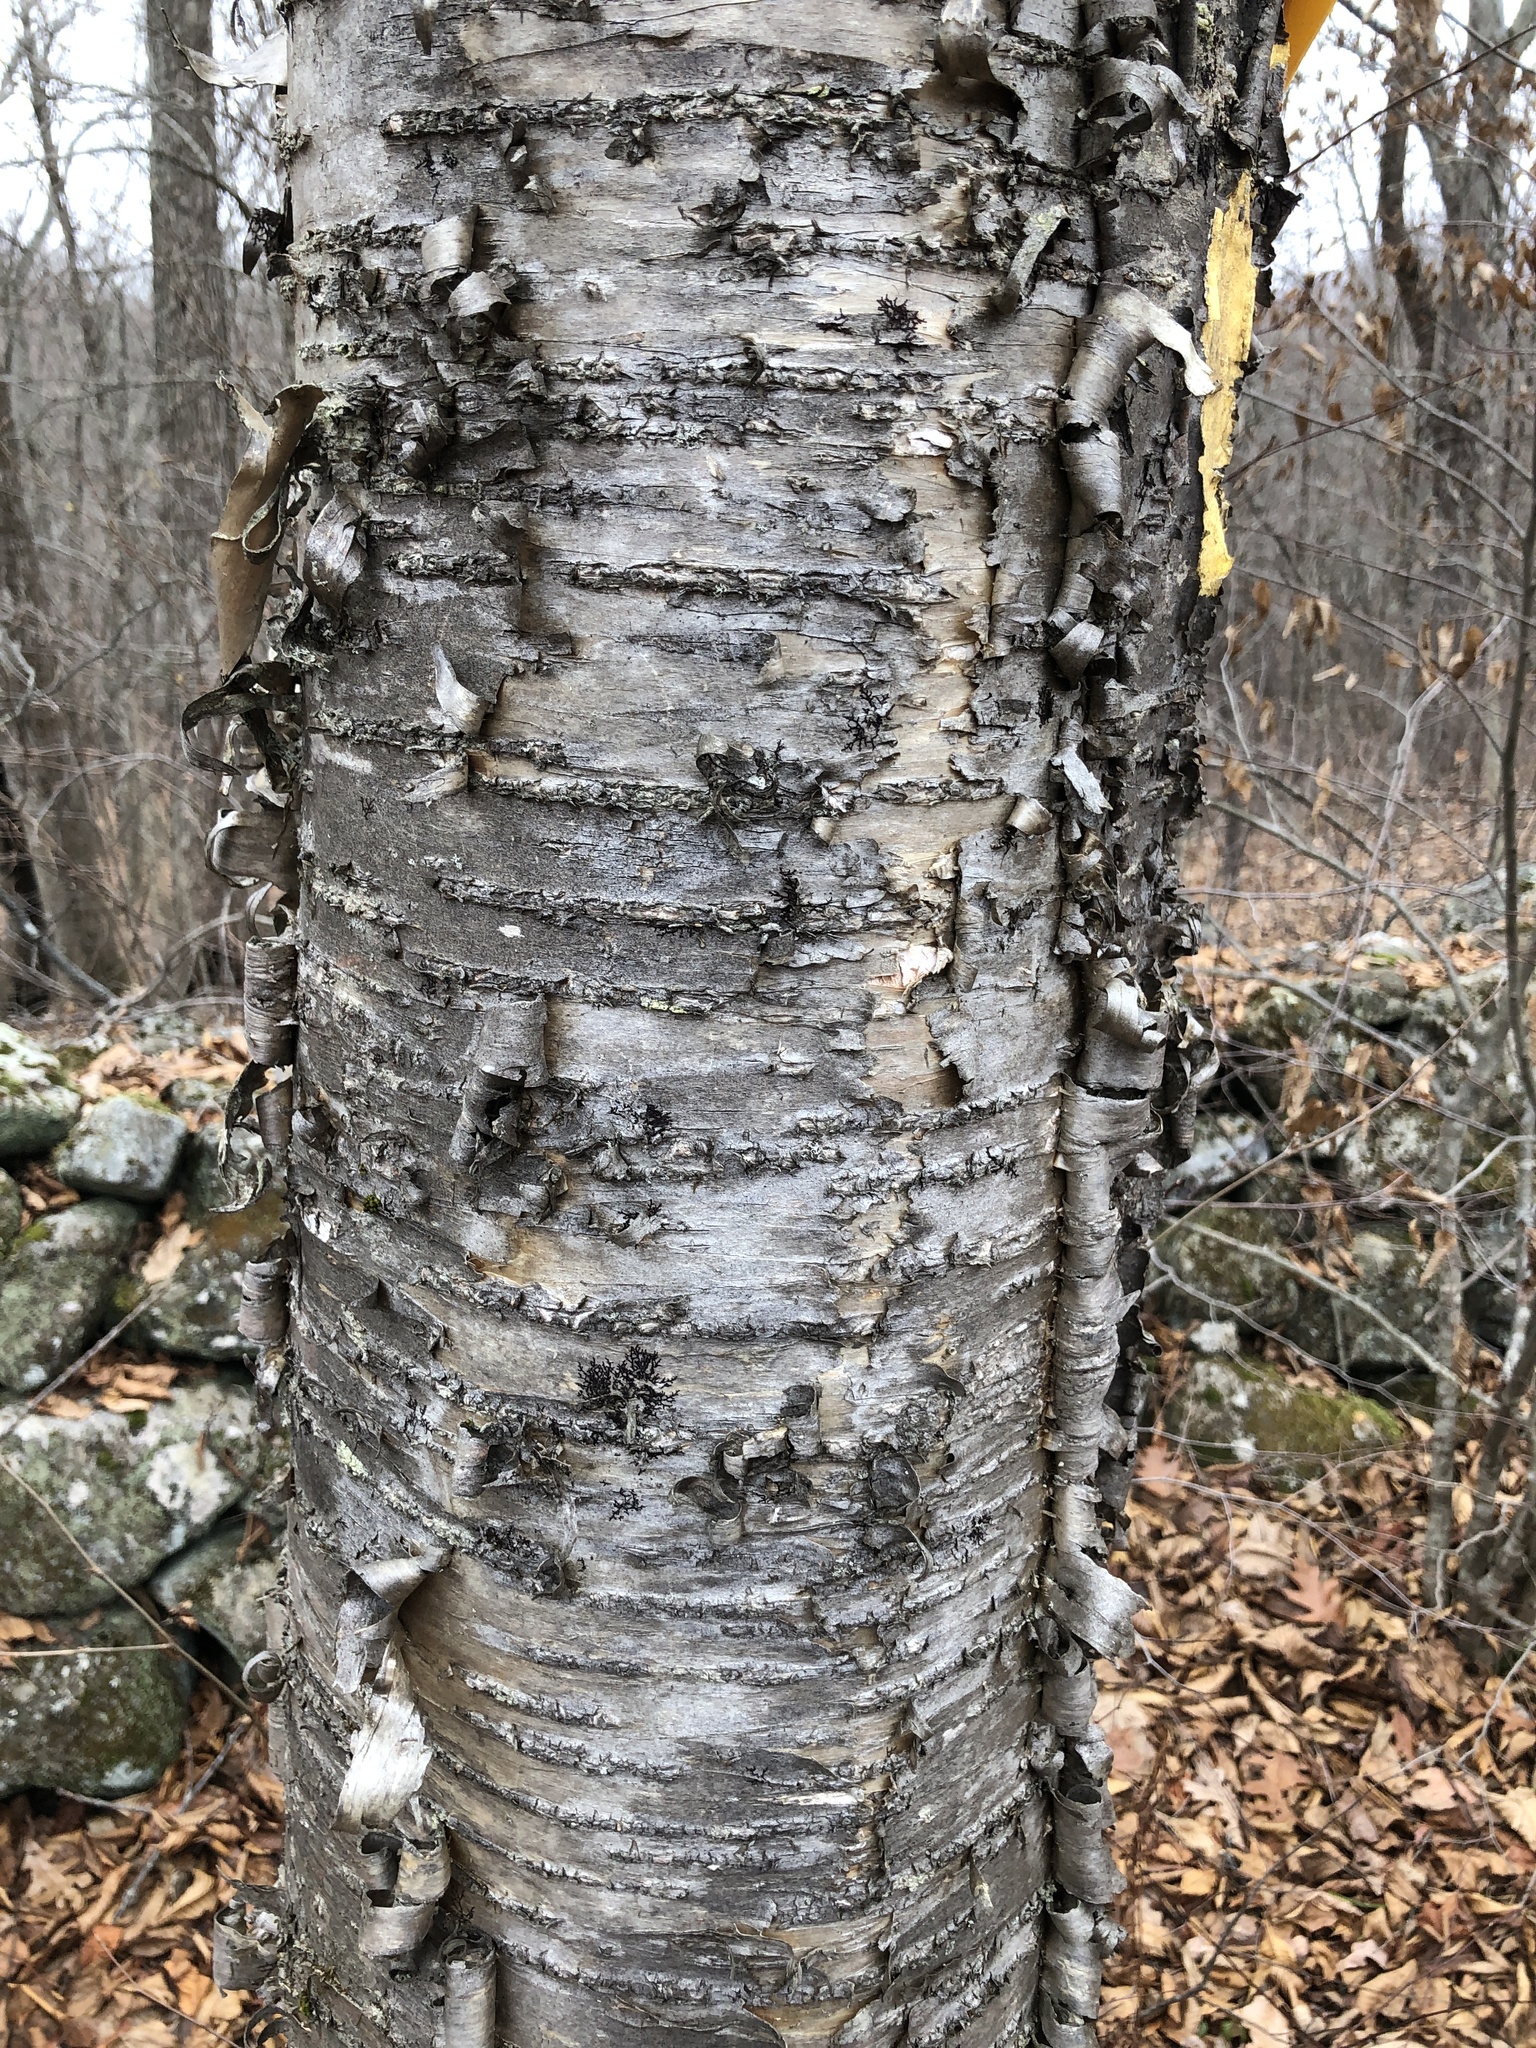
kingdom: Plantae
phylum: Tracheophyta
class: Magnoliopsida
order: Fagales
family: Betulaceae
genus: Betula
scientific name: Betula alleghaniensis
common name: Yellow birch
